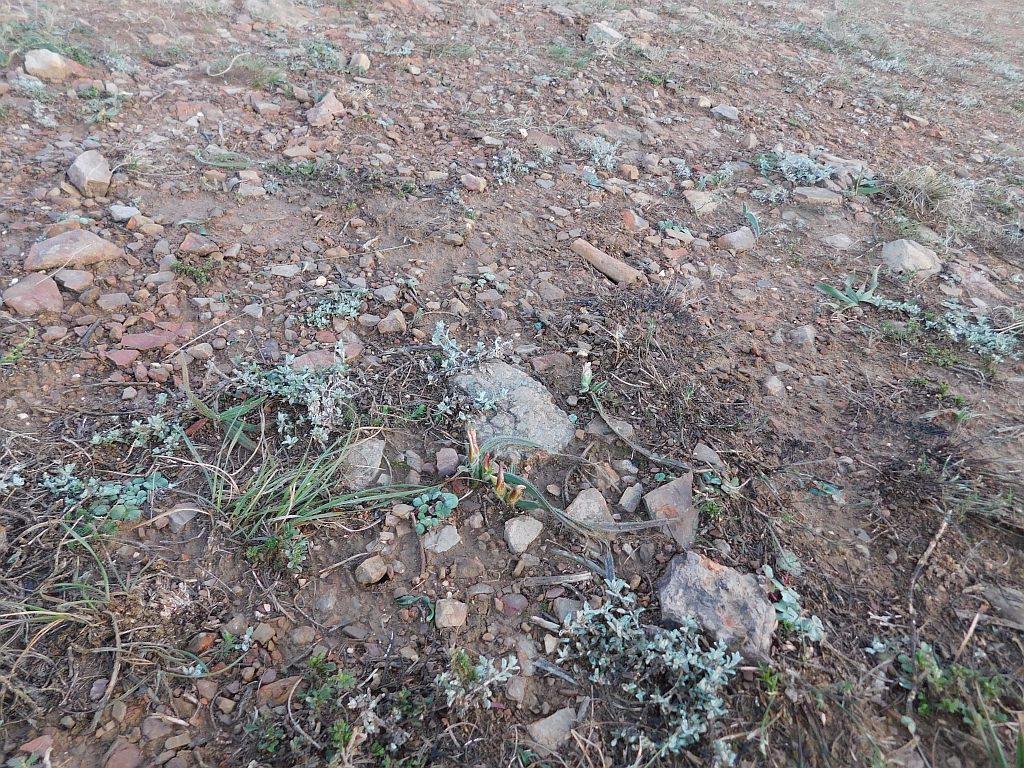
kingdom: Plantae
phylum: Tracheophyta
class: Liliopsida
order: Asparagales
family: Iridaceae
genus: Romulea
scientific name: Romulea pilosa
